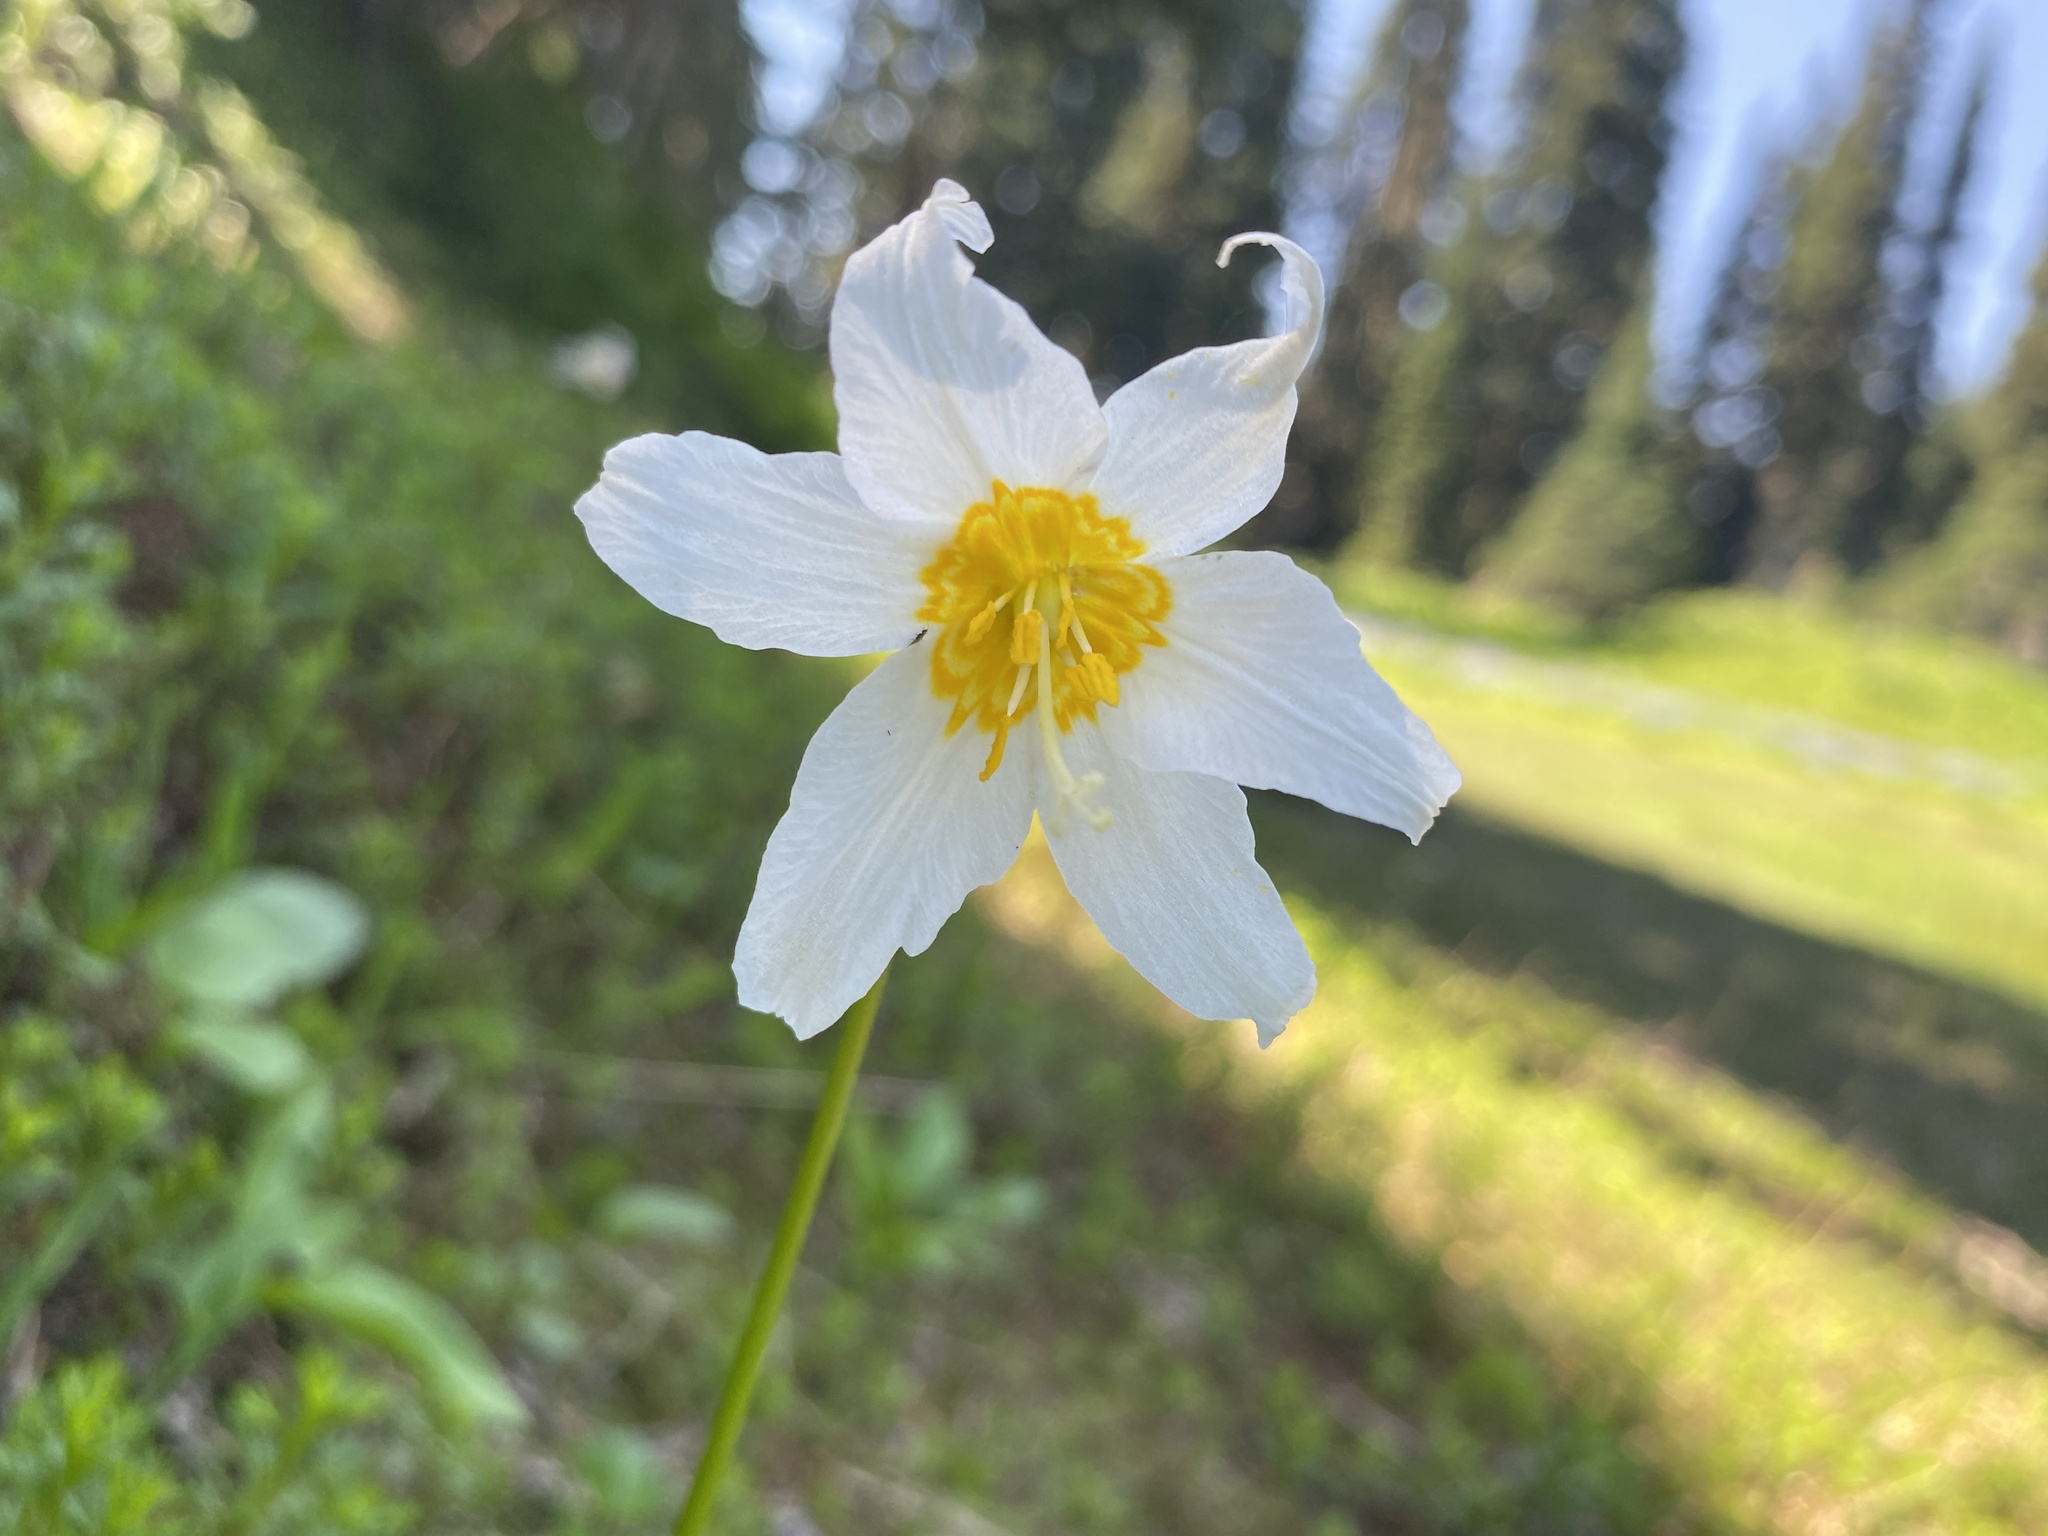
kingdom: Plantae
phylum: Tracheophyta
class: Liliopsida
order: Liliales
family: Liliaceae
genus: Erythronium
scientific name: Erythronium montanum
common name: Avalanche lily
